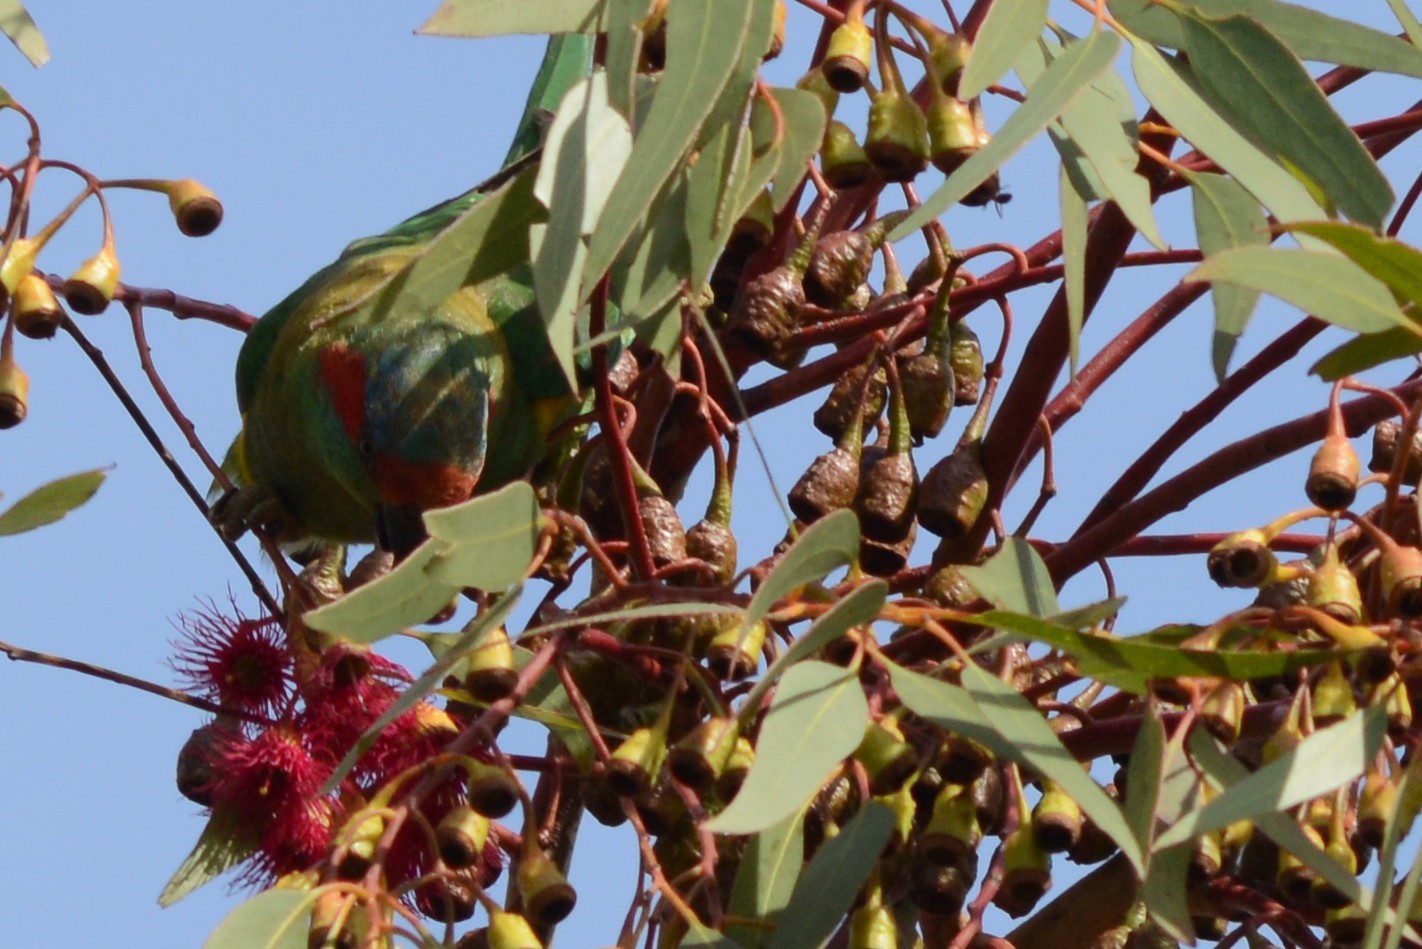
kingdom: Animalia
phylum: Chordata
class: Aves
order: Psittaciformes
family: Psittacidae
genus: Glossopsitta
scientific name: Glossopsitta concinna
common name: Musk lorikeet
